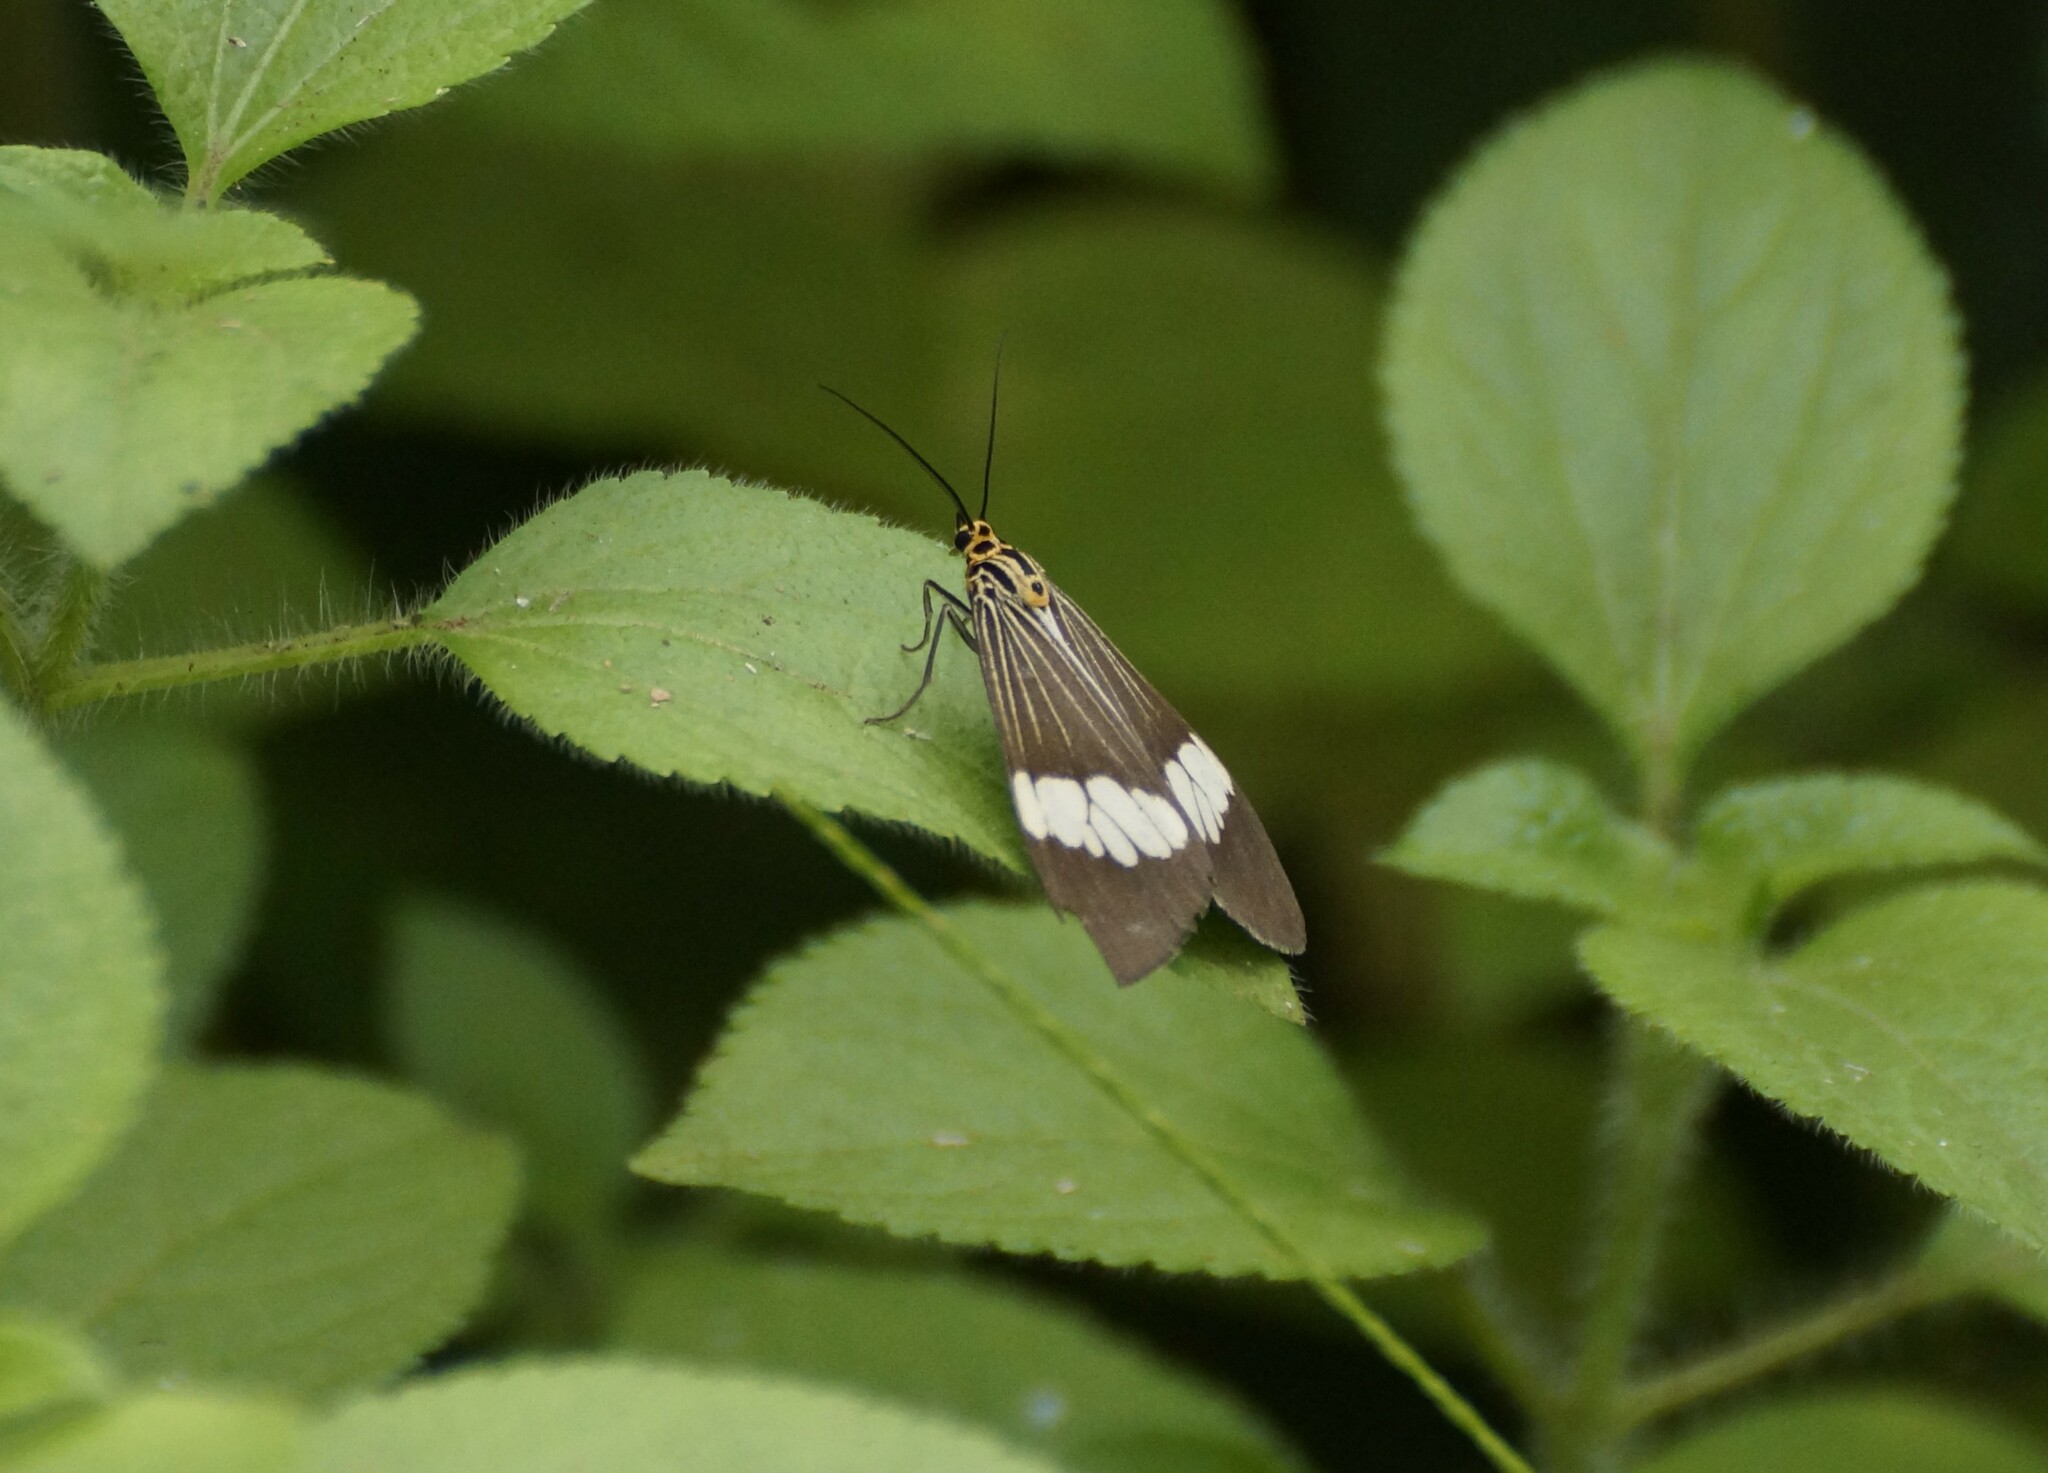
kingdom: Animalia
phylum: Arthropoda
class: Insecta
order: Lepidoptera
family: Erebidae
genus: Nyctemera
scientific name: Nyctemera baulus
